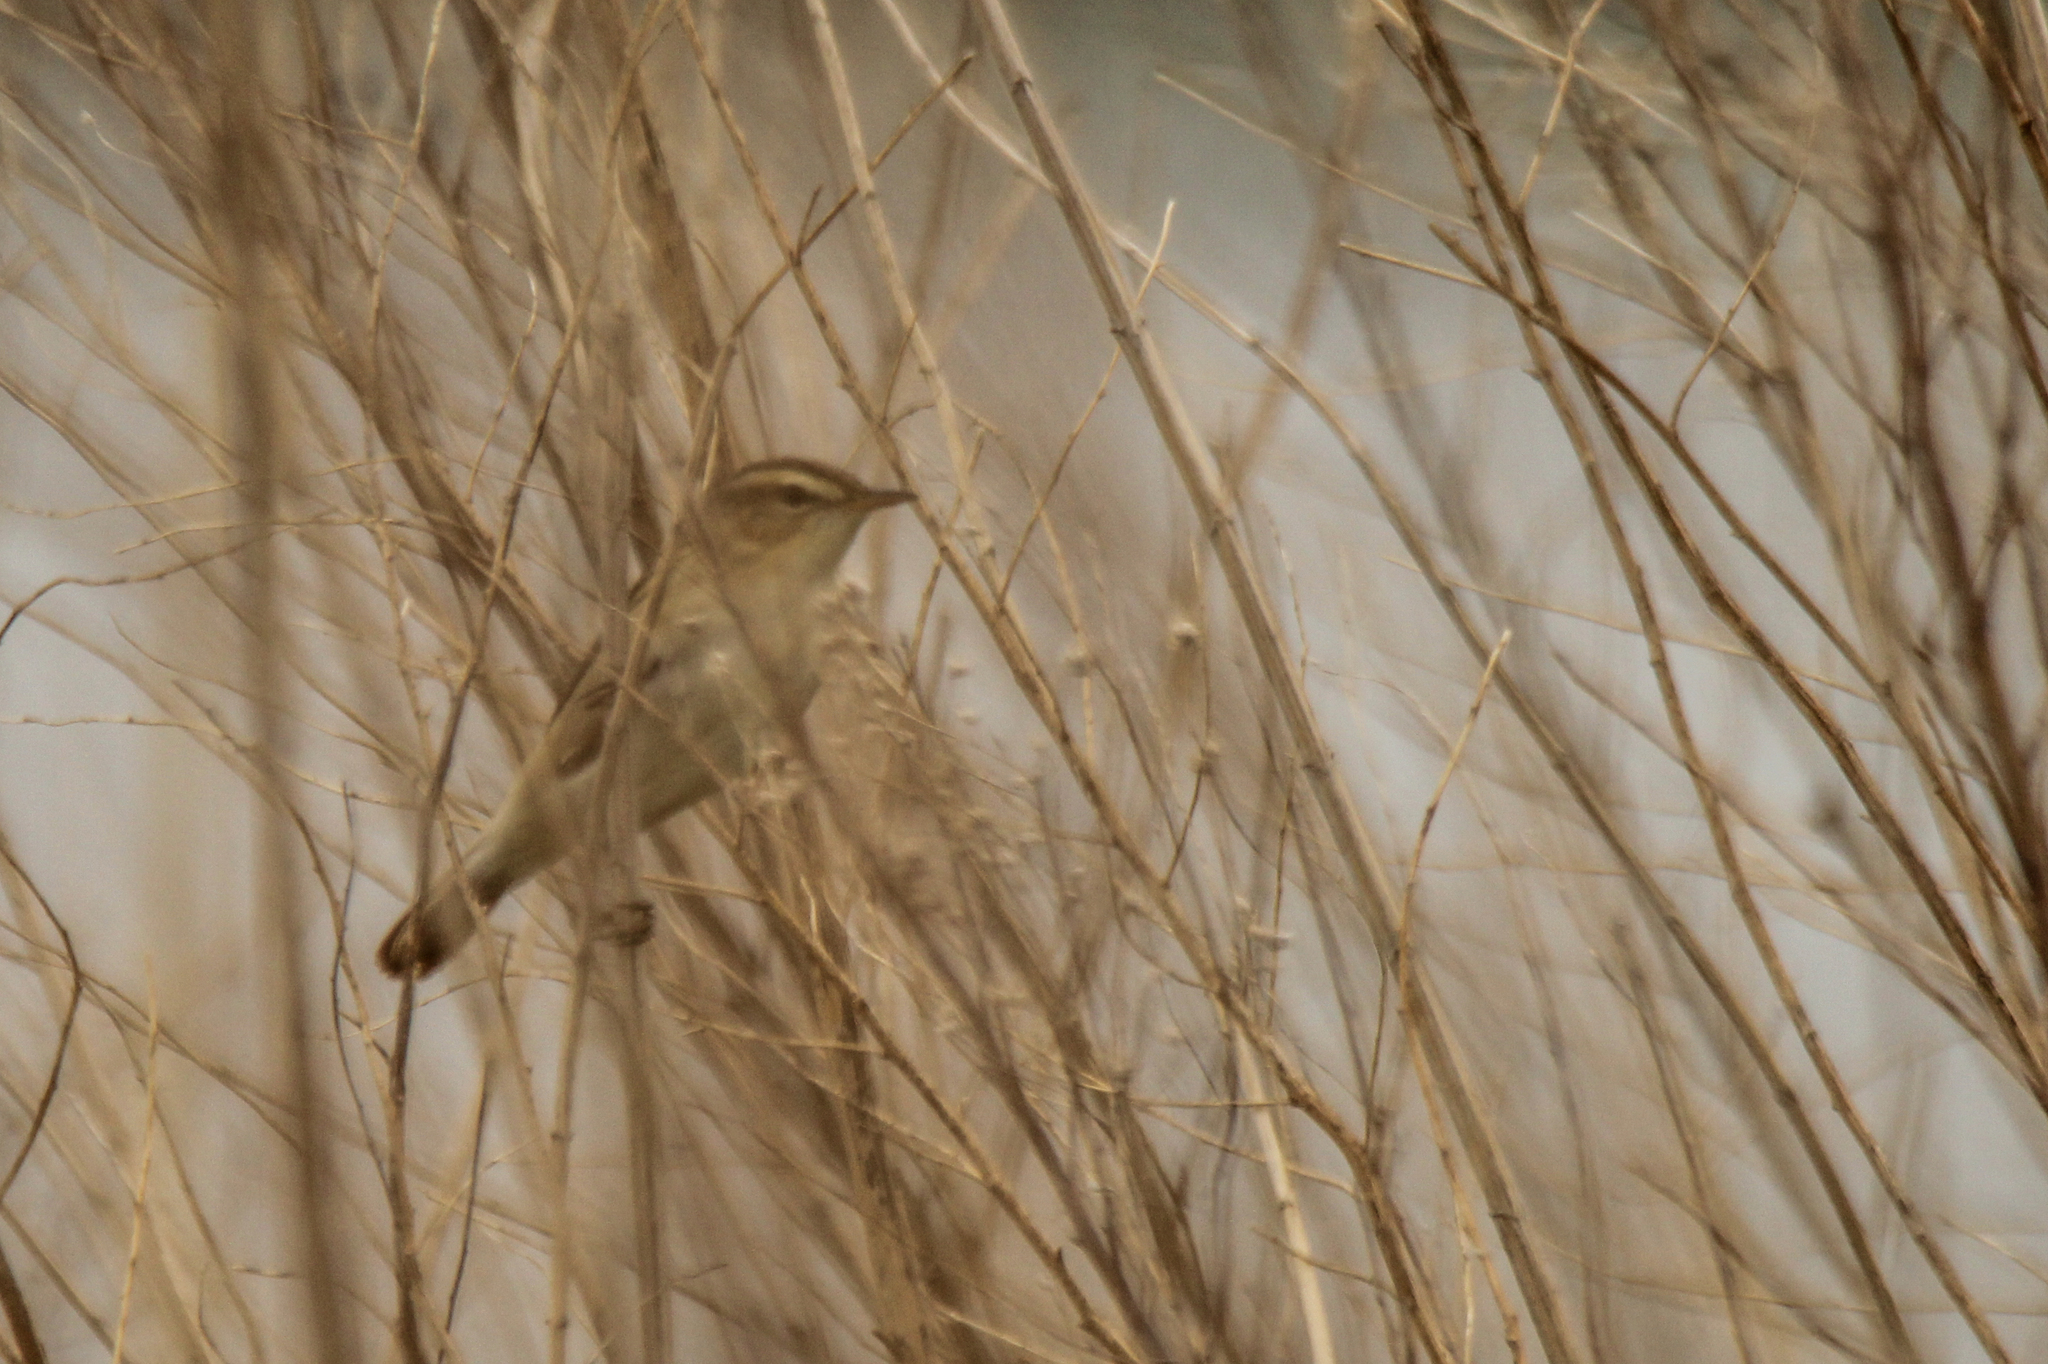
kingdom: Animalia
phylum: Chordata
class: Aves
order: Passeriformes
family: Acrocephalidae
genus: Acrocephalus
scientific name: Acrocephalus bistrigiceps
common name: Black-browed reed warbler
